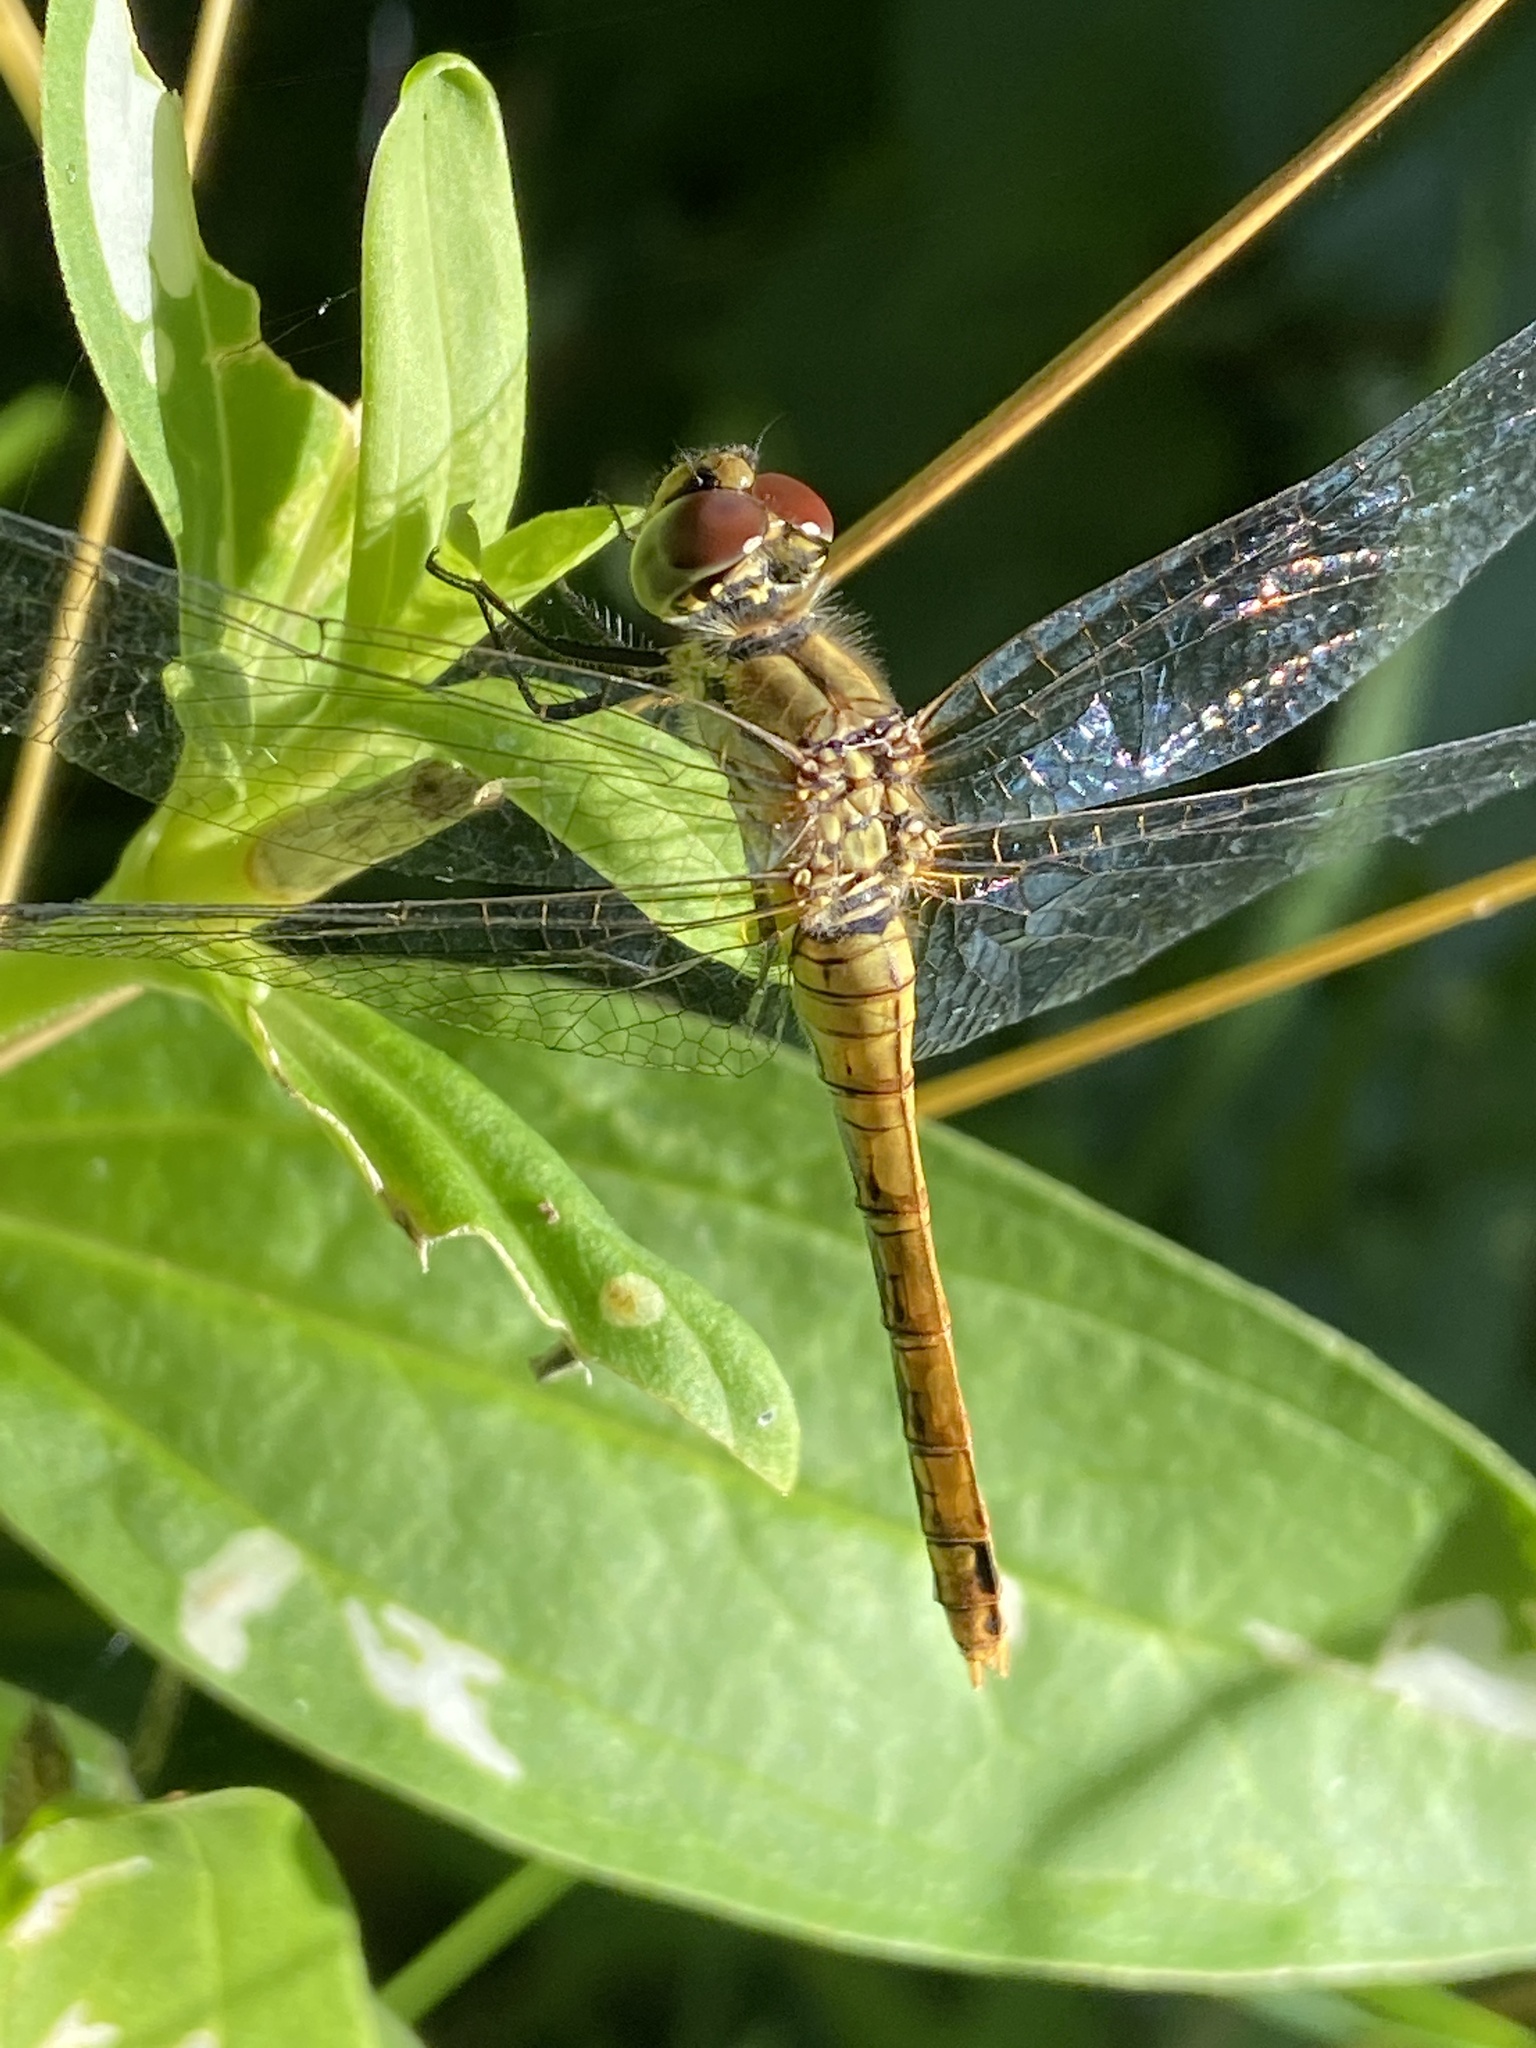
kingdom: Animalia
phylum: Arthropoda
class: Insecta
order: Odonata
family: Libellulidae
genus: Sympetrum
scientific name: Sympetrum sanguineum
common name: Ruddy darter
